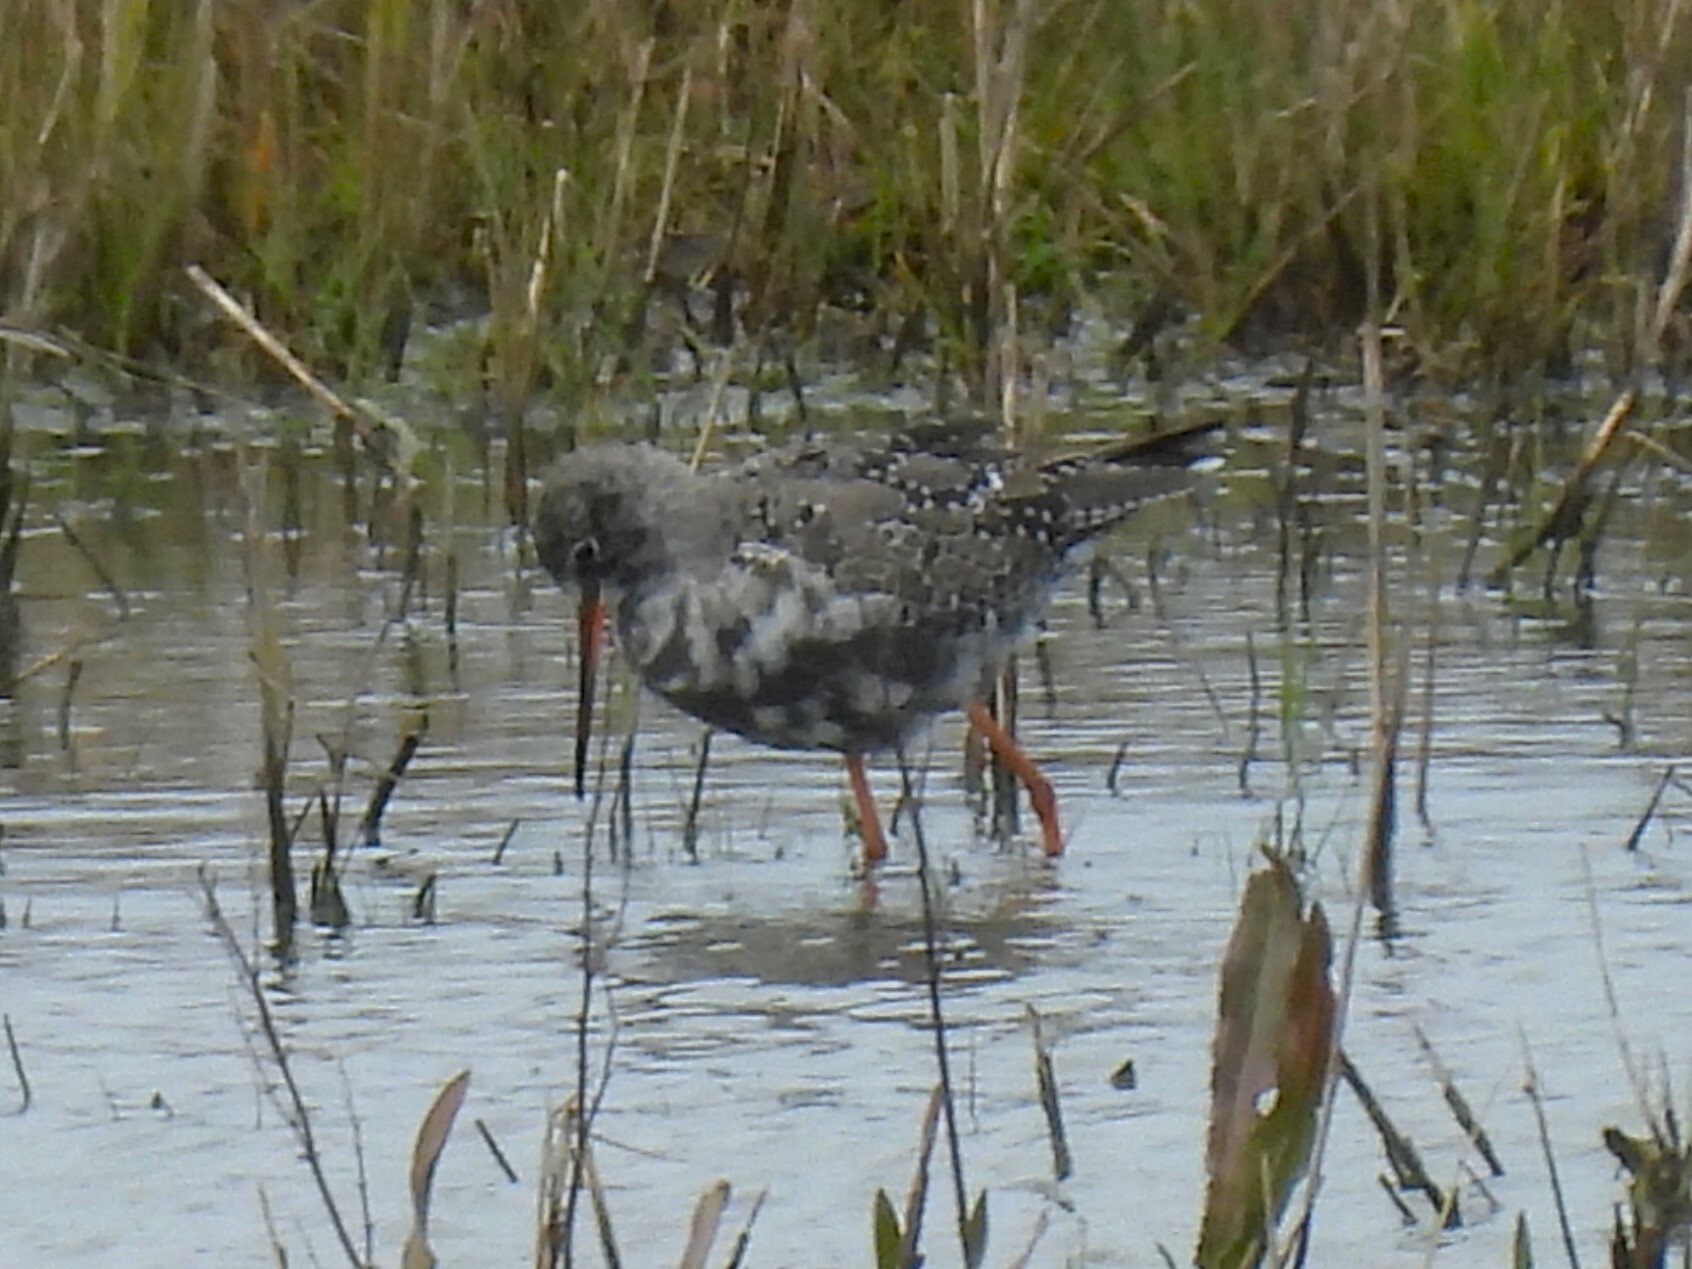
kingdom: Animalia
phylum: Chordata
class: Aves
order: Charadriiformes
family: Scolopacidae
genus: Tringa
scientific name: Tringa erythropus
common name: Spotted redshank
